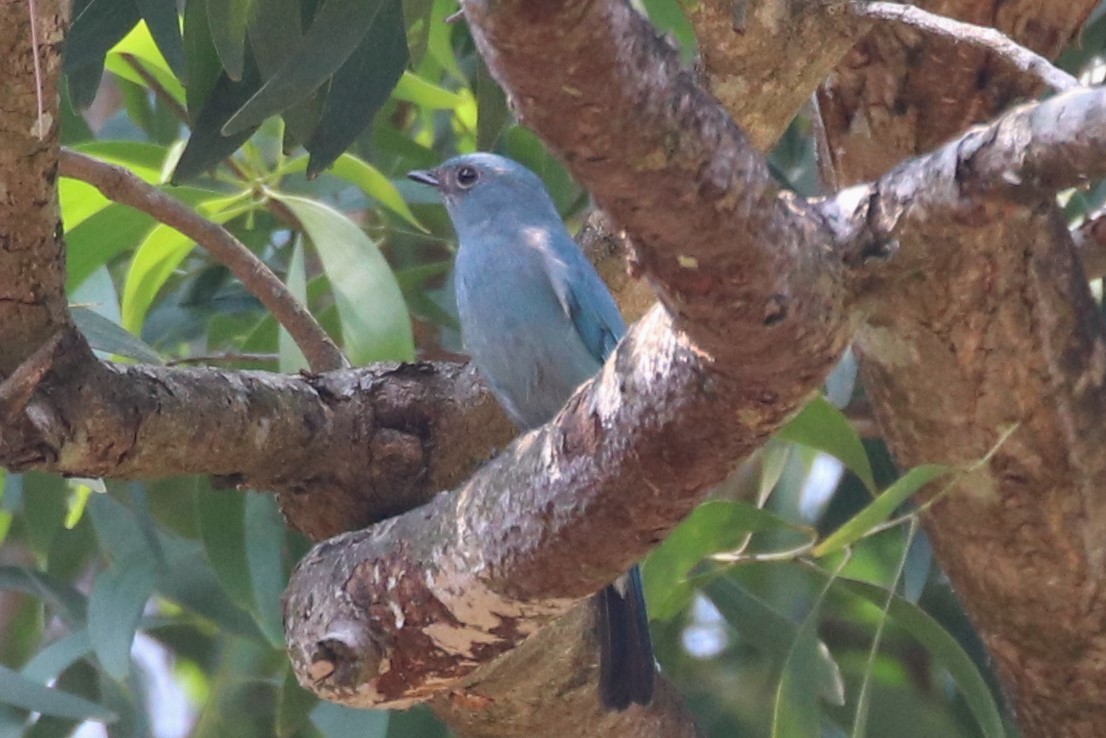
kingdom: Animalia
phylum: Chordata
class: Aves
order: Passeriformes
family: Muscicapidae
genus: Eumyias
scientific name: Eumyias thalassinus
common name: Verditer flycatcher
